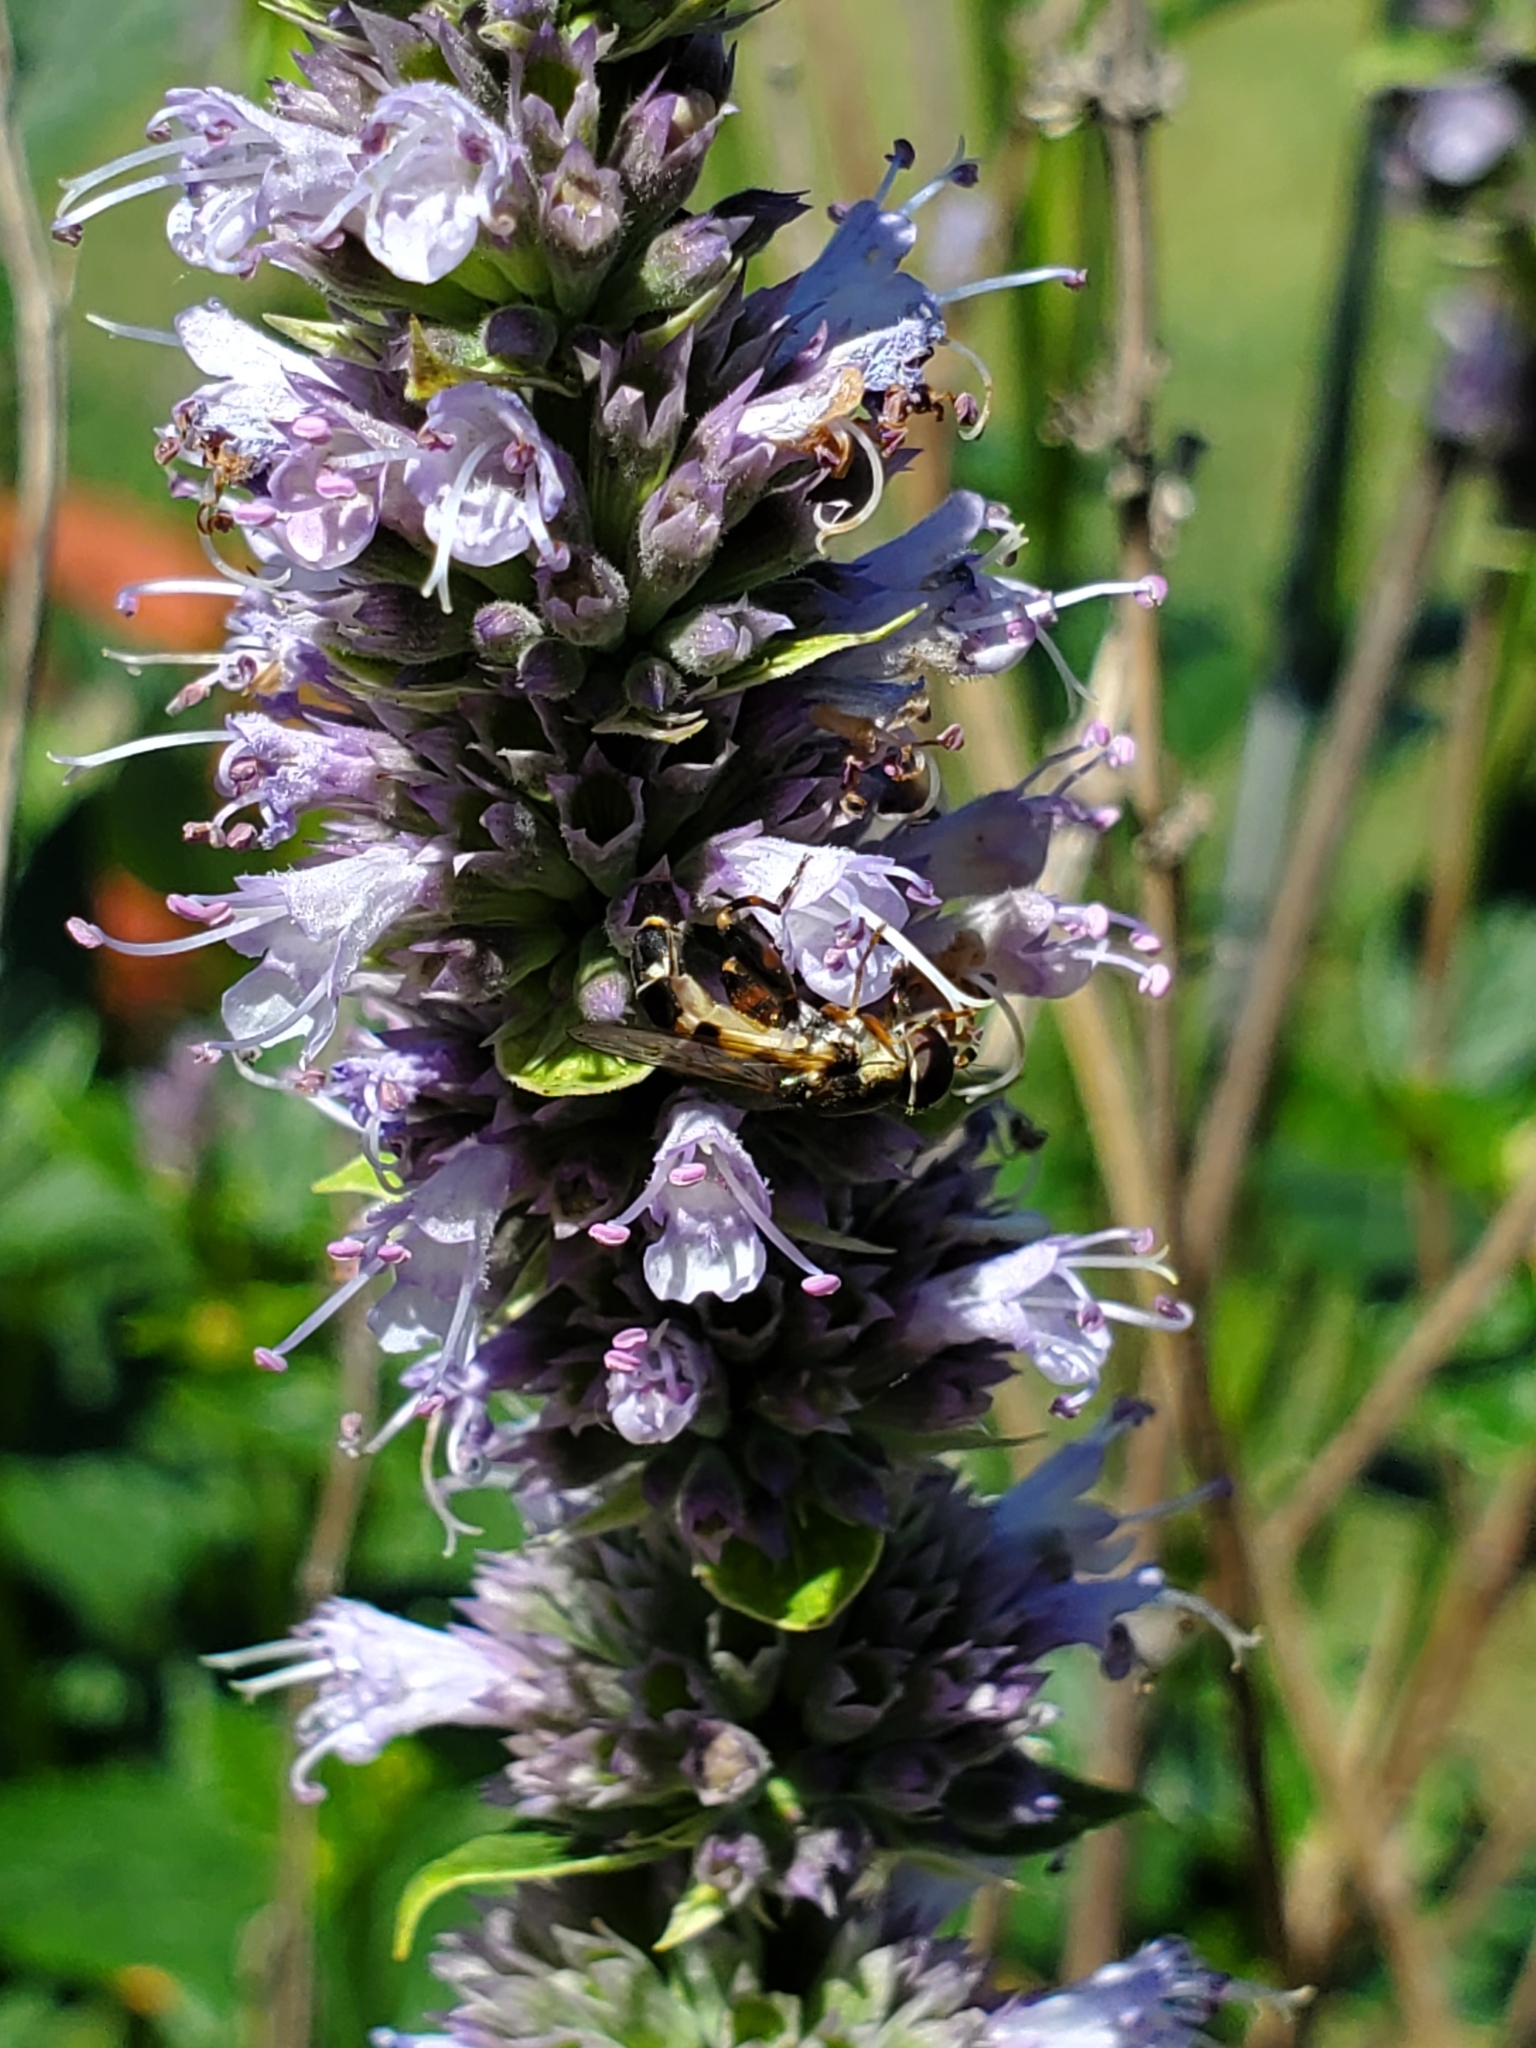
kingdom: Animalia
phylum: Arthropoda
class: Insecta
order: Diptera
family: Syrphidae
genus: Syritta
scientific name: Syritta pipiens
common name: Hover fly
